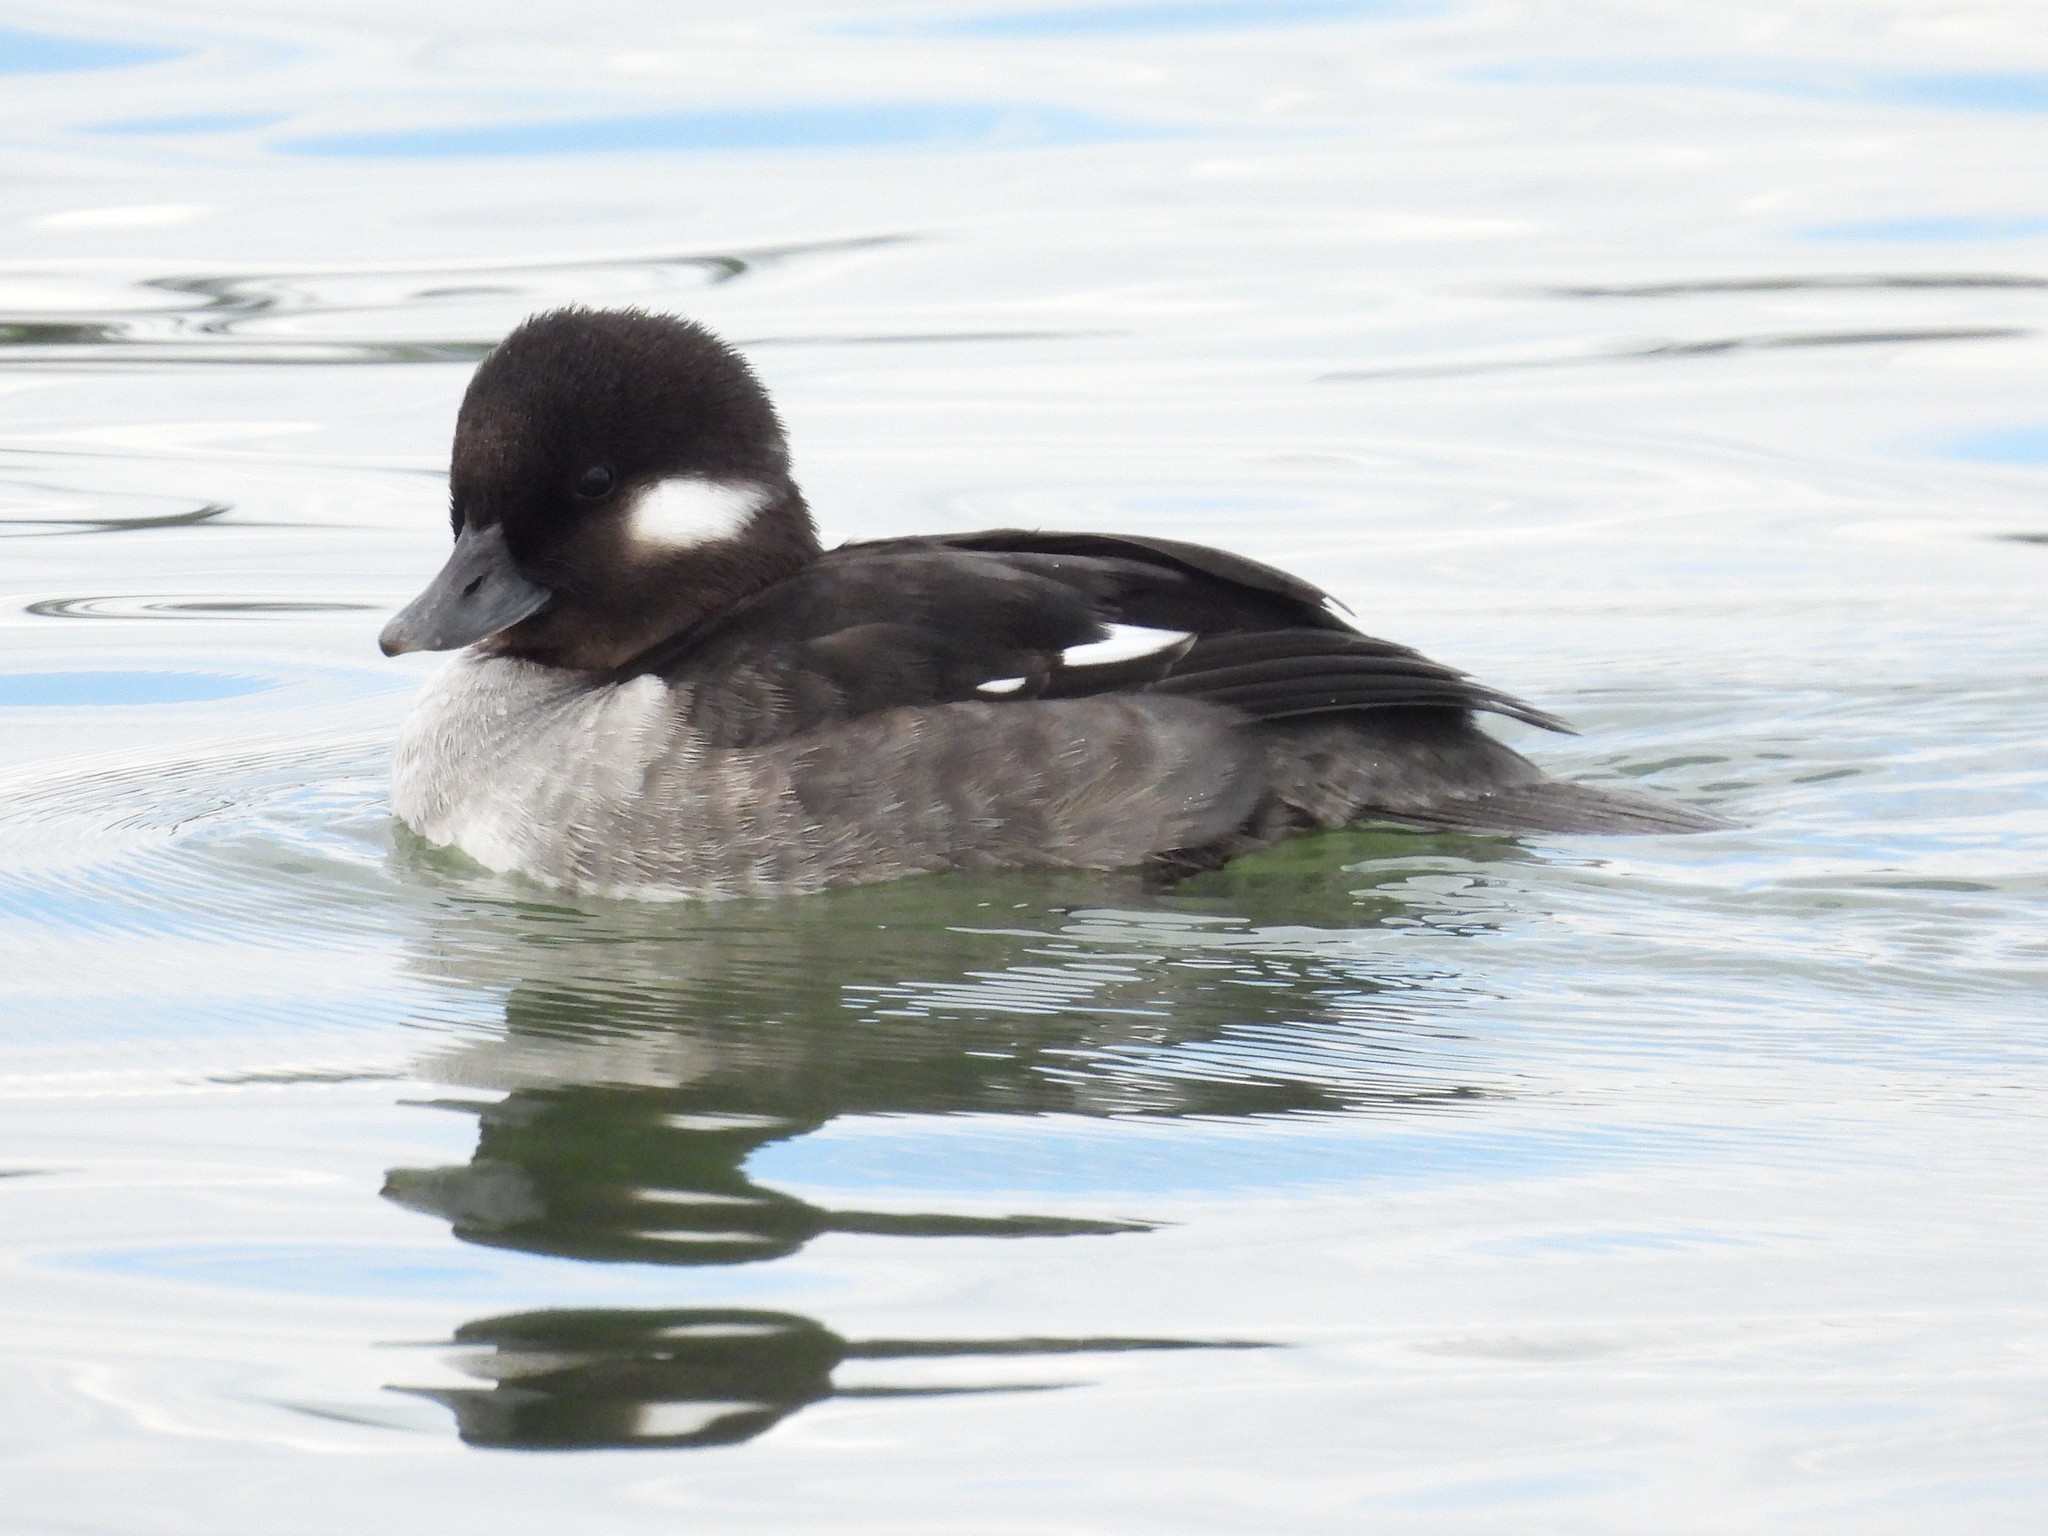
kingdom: Animalia
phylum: Chordata
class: Aves
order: Anseriformes
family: Anatidae
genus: Bucephala
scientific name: Bucephala albeola
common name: Bufflehead
